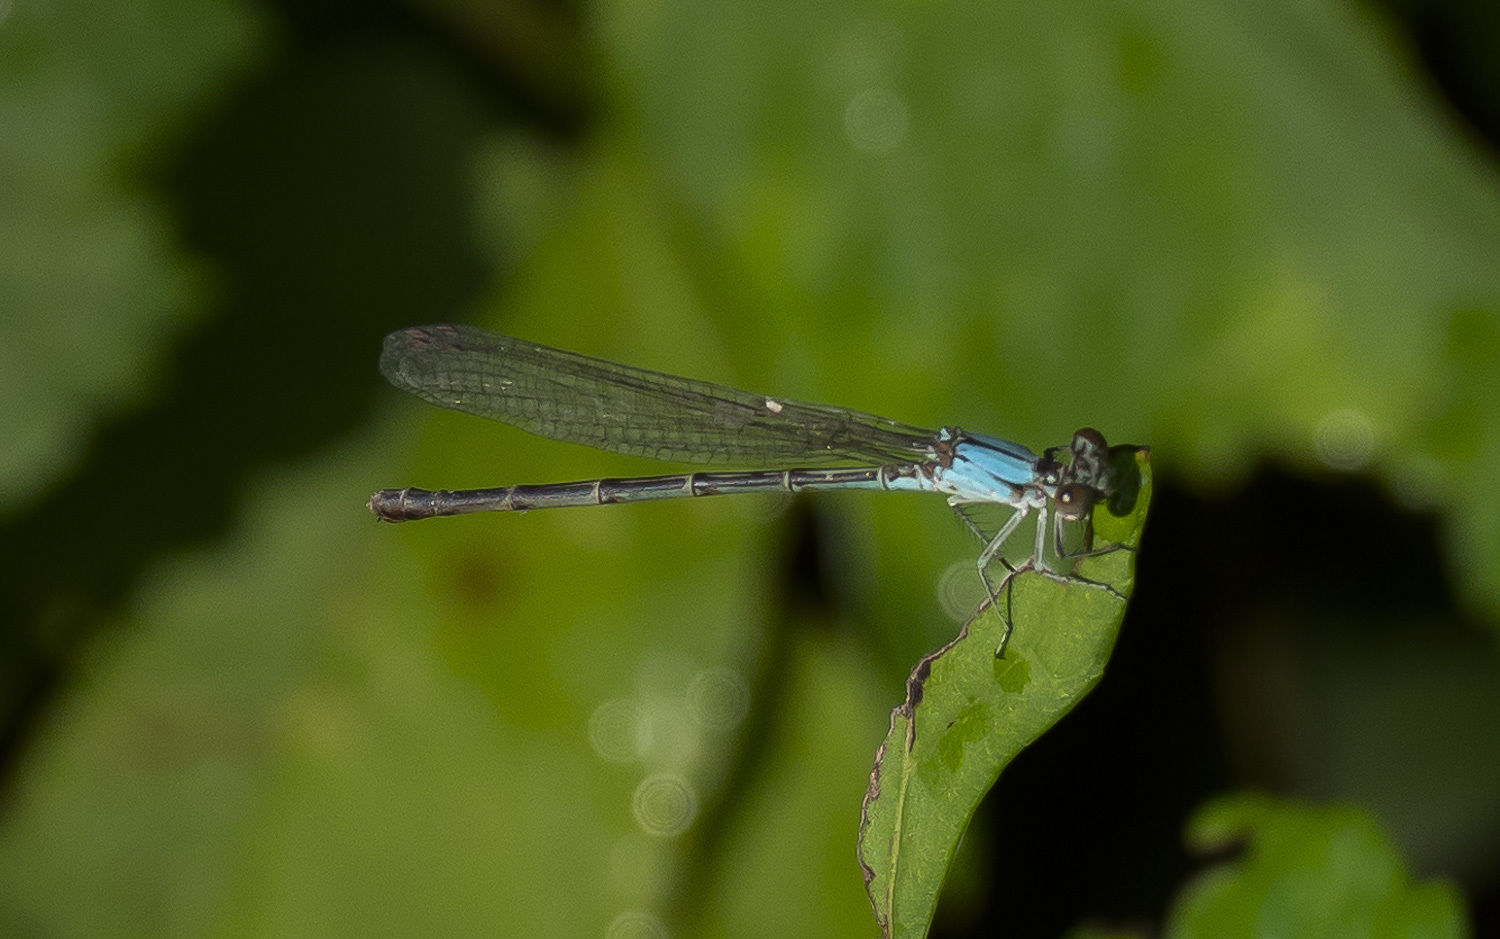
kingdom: Animalia
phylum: Arthropoda
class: Insecta
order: Odonata
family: Coenagrionidae
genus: Argia
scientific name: Argia apicalis
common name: Blue-fronted dancer
